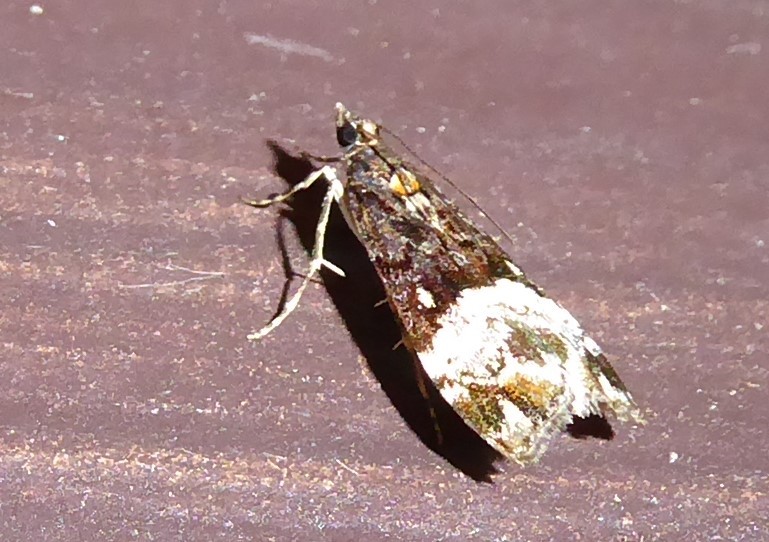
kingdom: Animalia
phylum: Arthropoda
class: Insecta
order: Lepidoptera
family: Crambidae
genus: Scoparia
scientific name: Scoparia minusculalis
